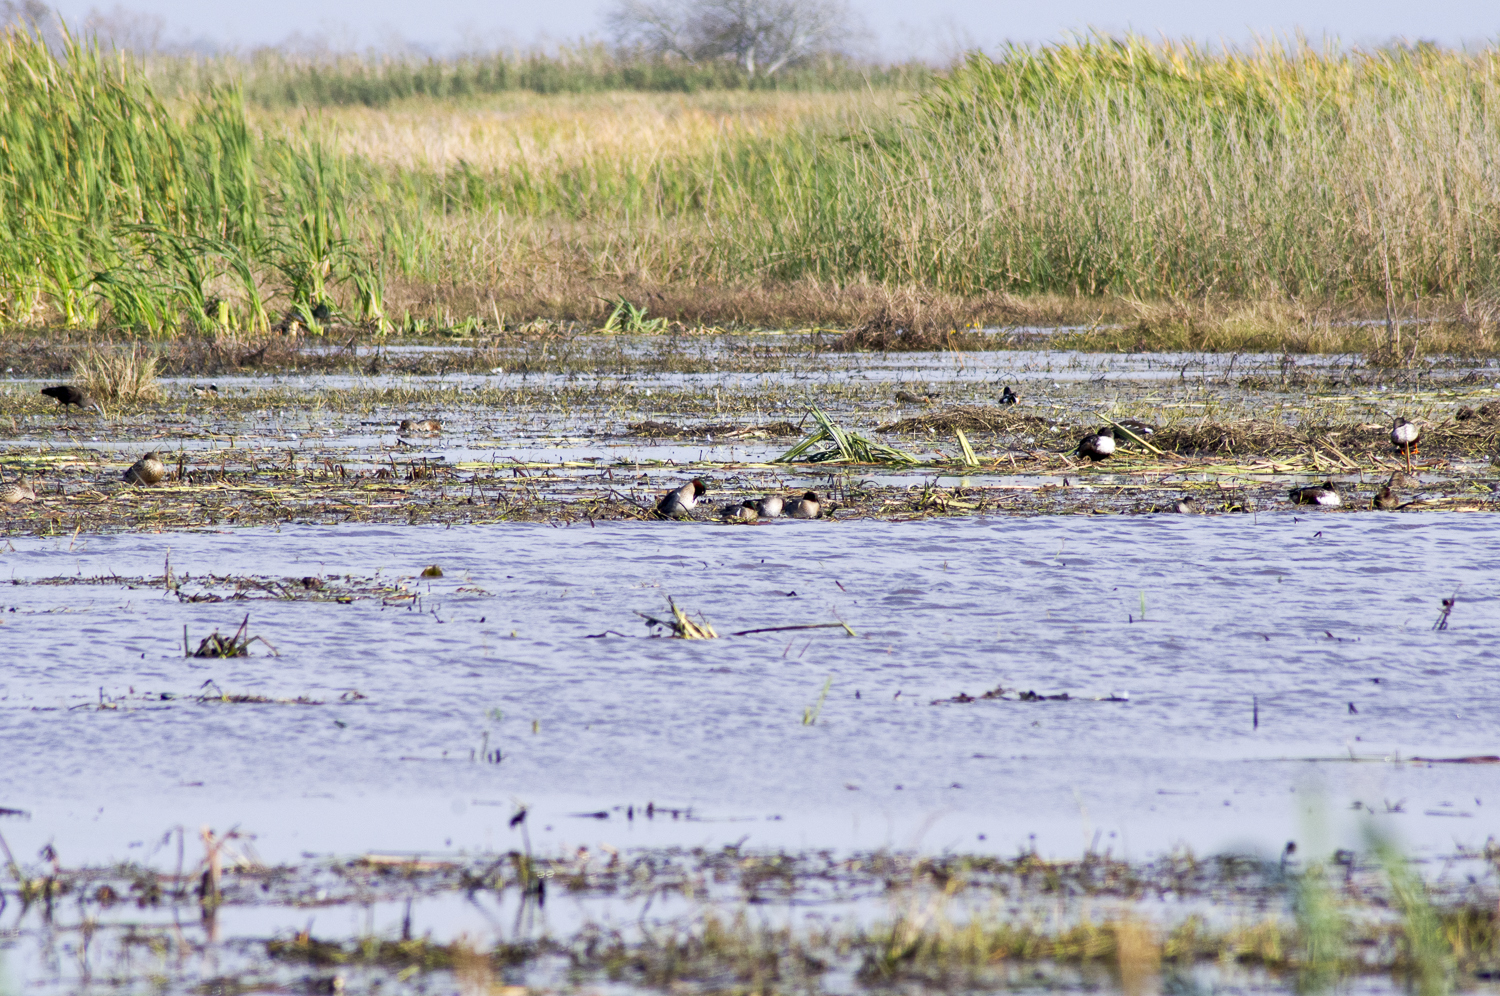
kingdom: Animalia
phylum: Chordata
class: Aves
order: Anseriformes
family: Anatidae
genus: Anas
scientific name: Anas carolinensis
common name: Green-winged teal
